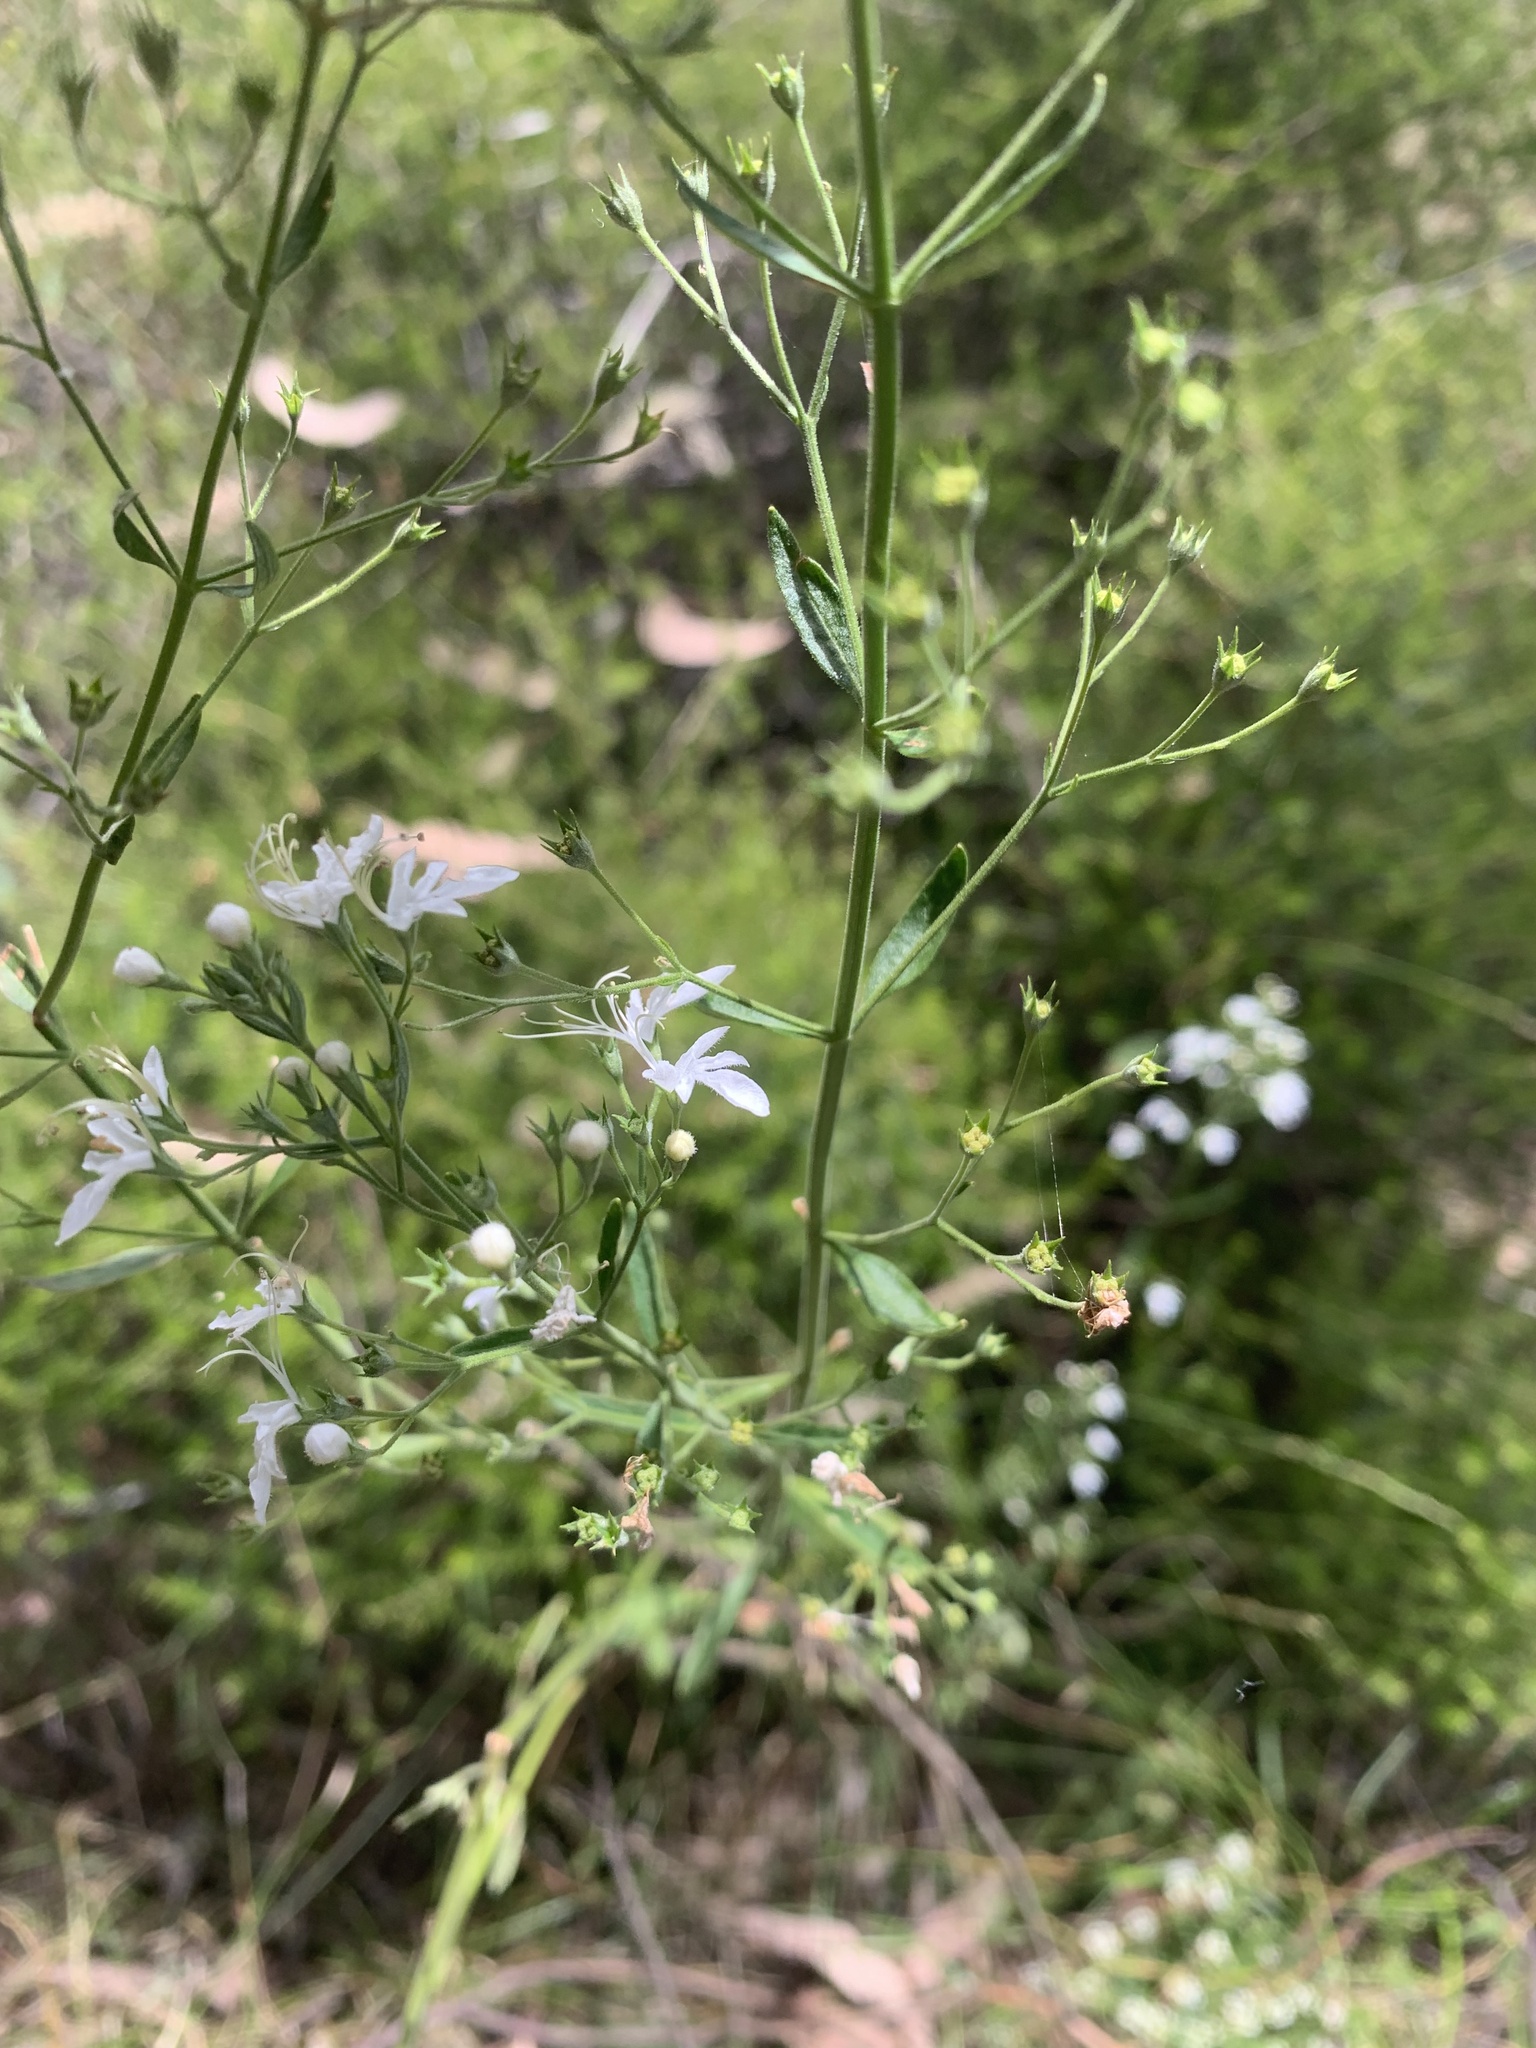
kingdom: Plantae
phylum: Tracheophyta
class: Magnoliopsida
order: Lamiales
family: Lamiaceae
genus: Teucrium
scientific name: Teucrium corymbosum
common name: Forest germander
